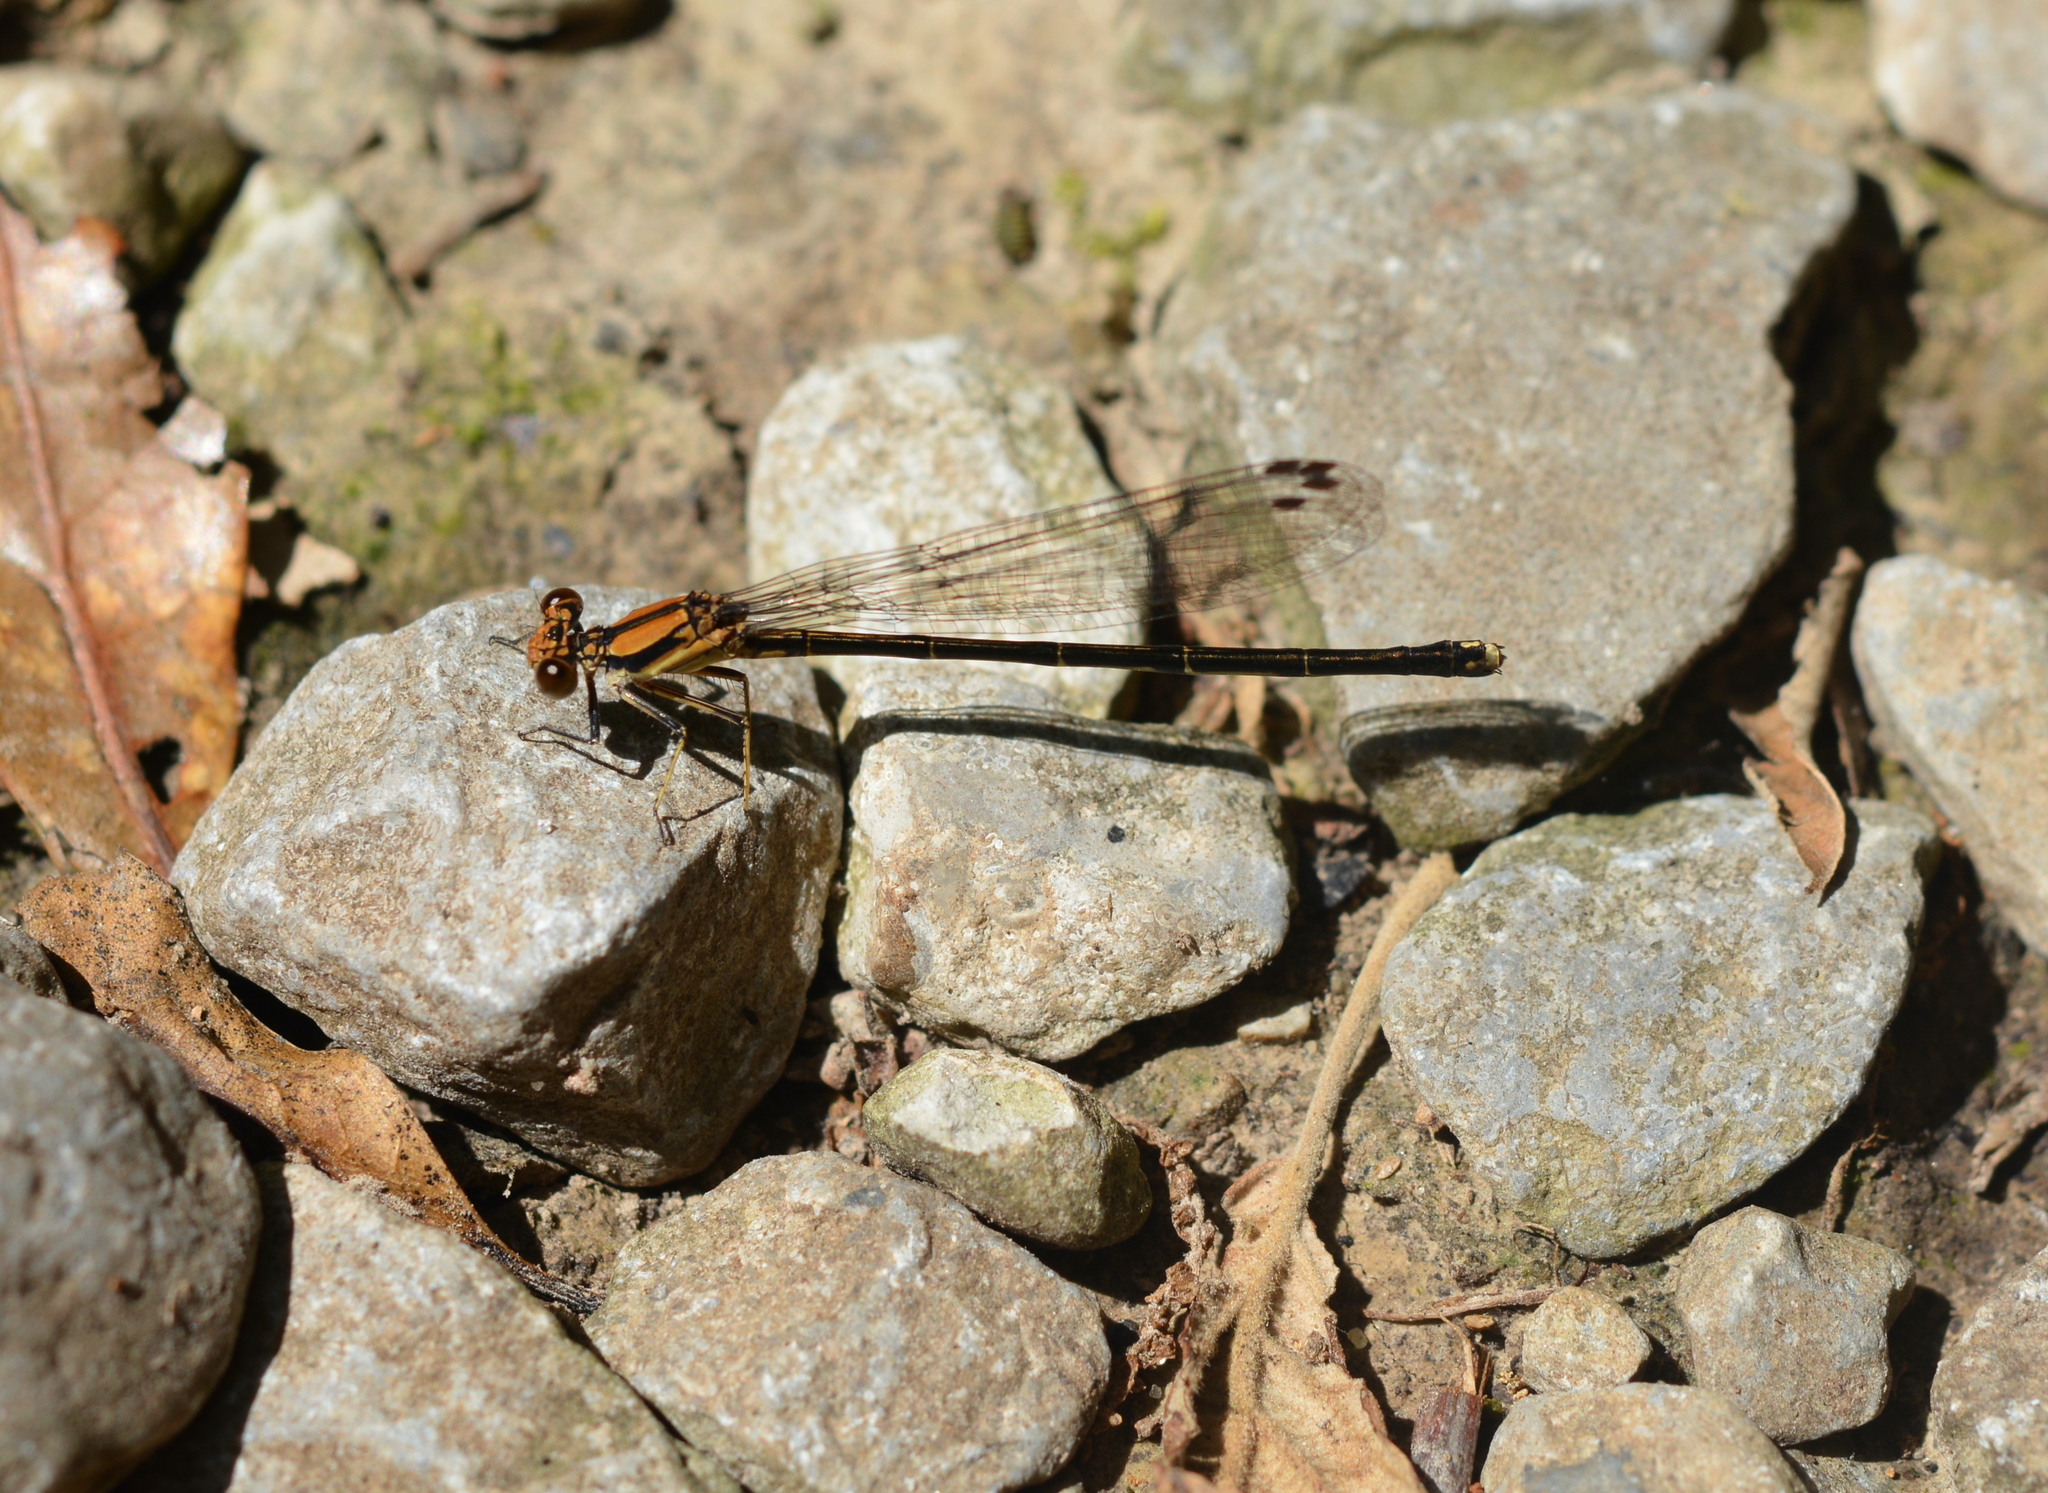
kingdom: Animalia
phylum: Arthropoda
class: Insecta
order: Odonata
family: Coenagrionidae
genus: Argia
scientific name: Argia tibialis
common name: Blue-tipped dancer
